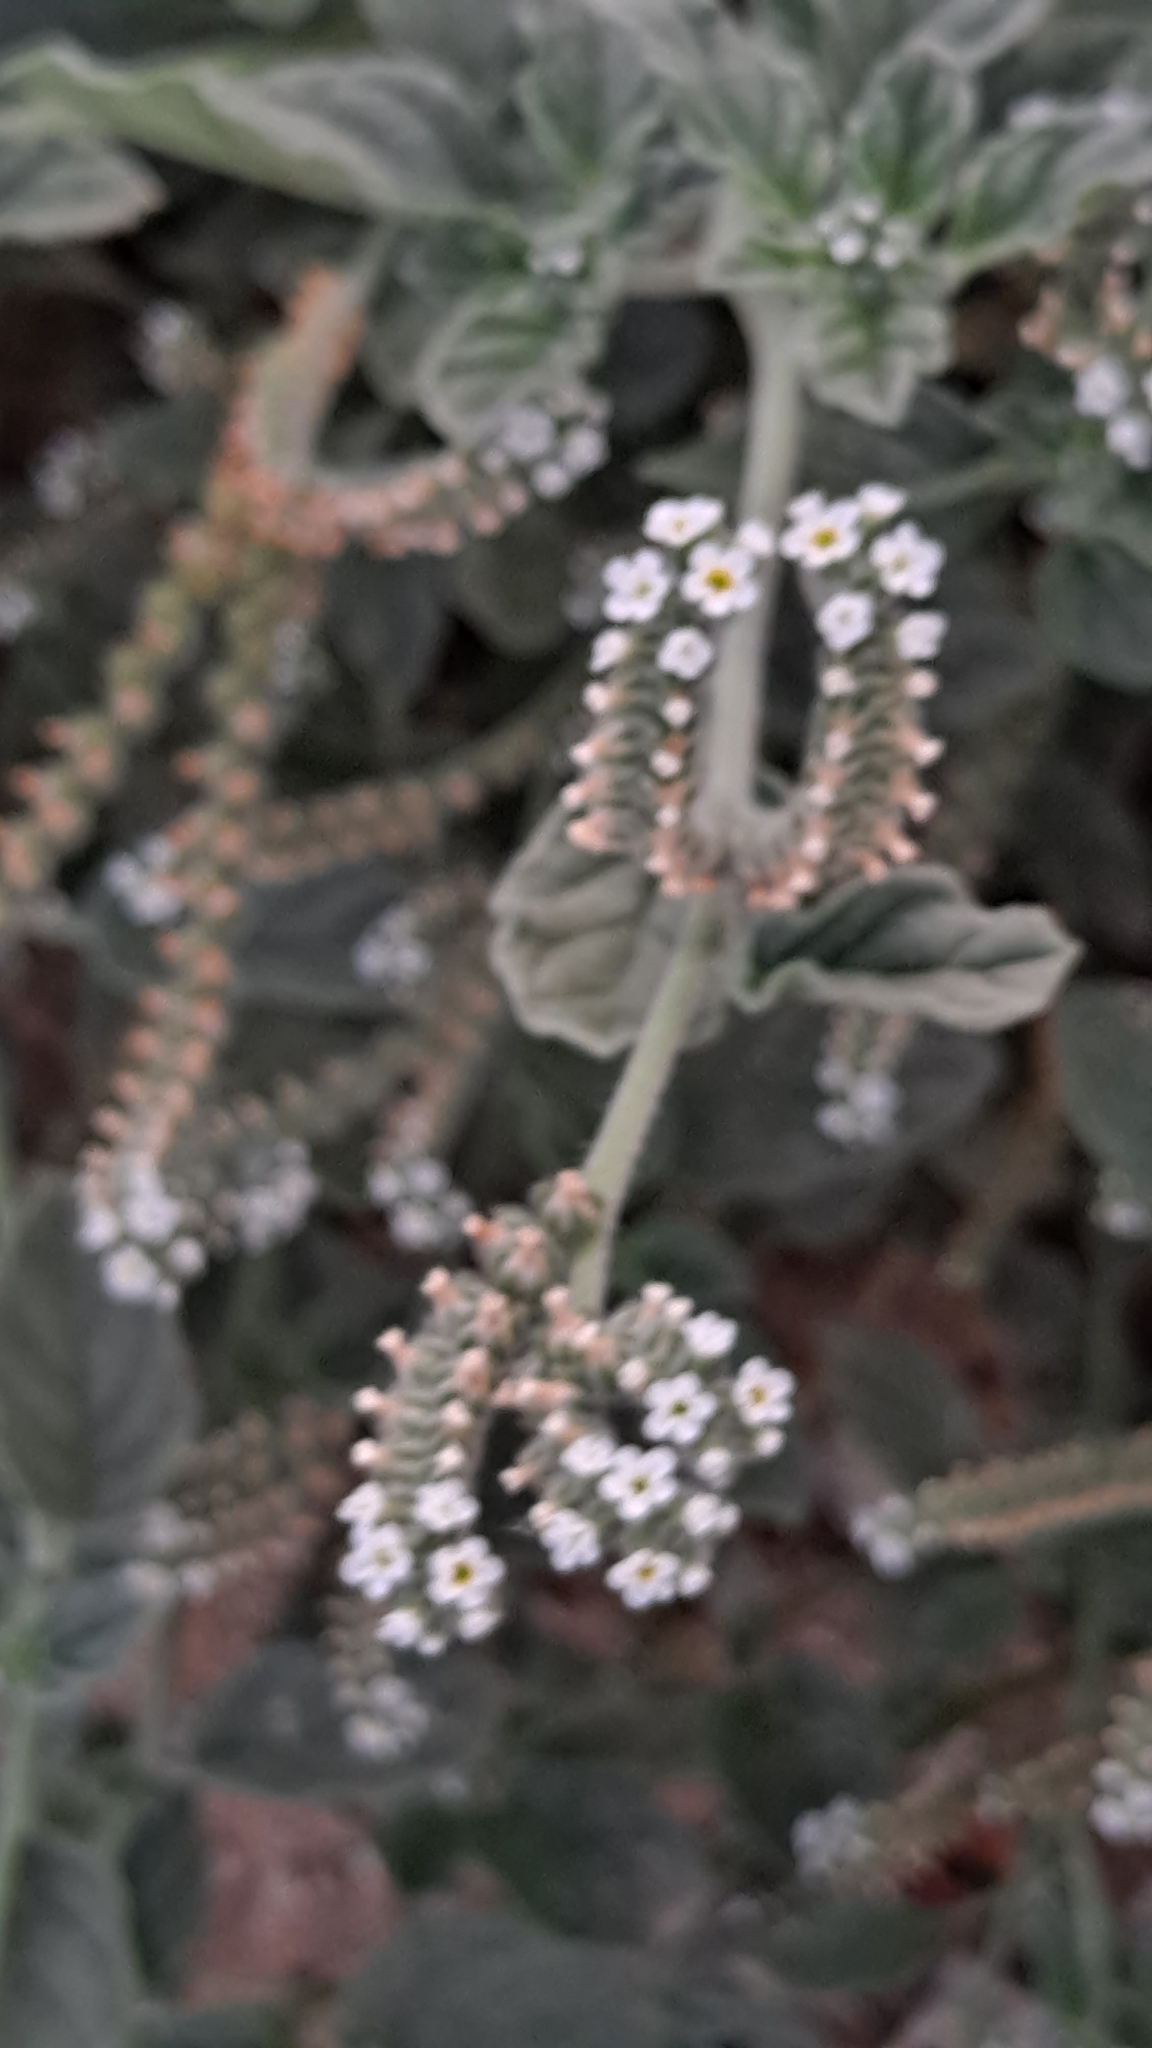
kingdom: Plantae
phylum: Tracheophyta
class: Magnoliopsida
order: Boraginales
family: Heliotropiaceae
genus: Heliotropium
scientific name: Heliotropium europaeum
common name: European heliotrope
